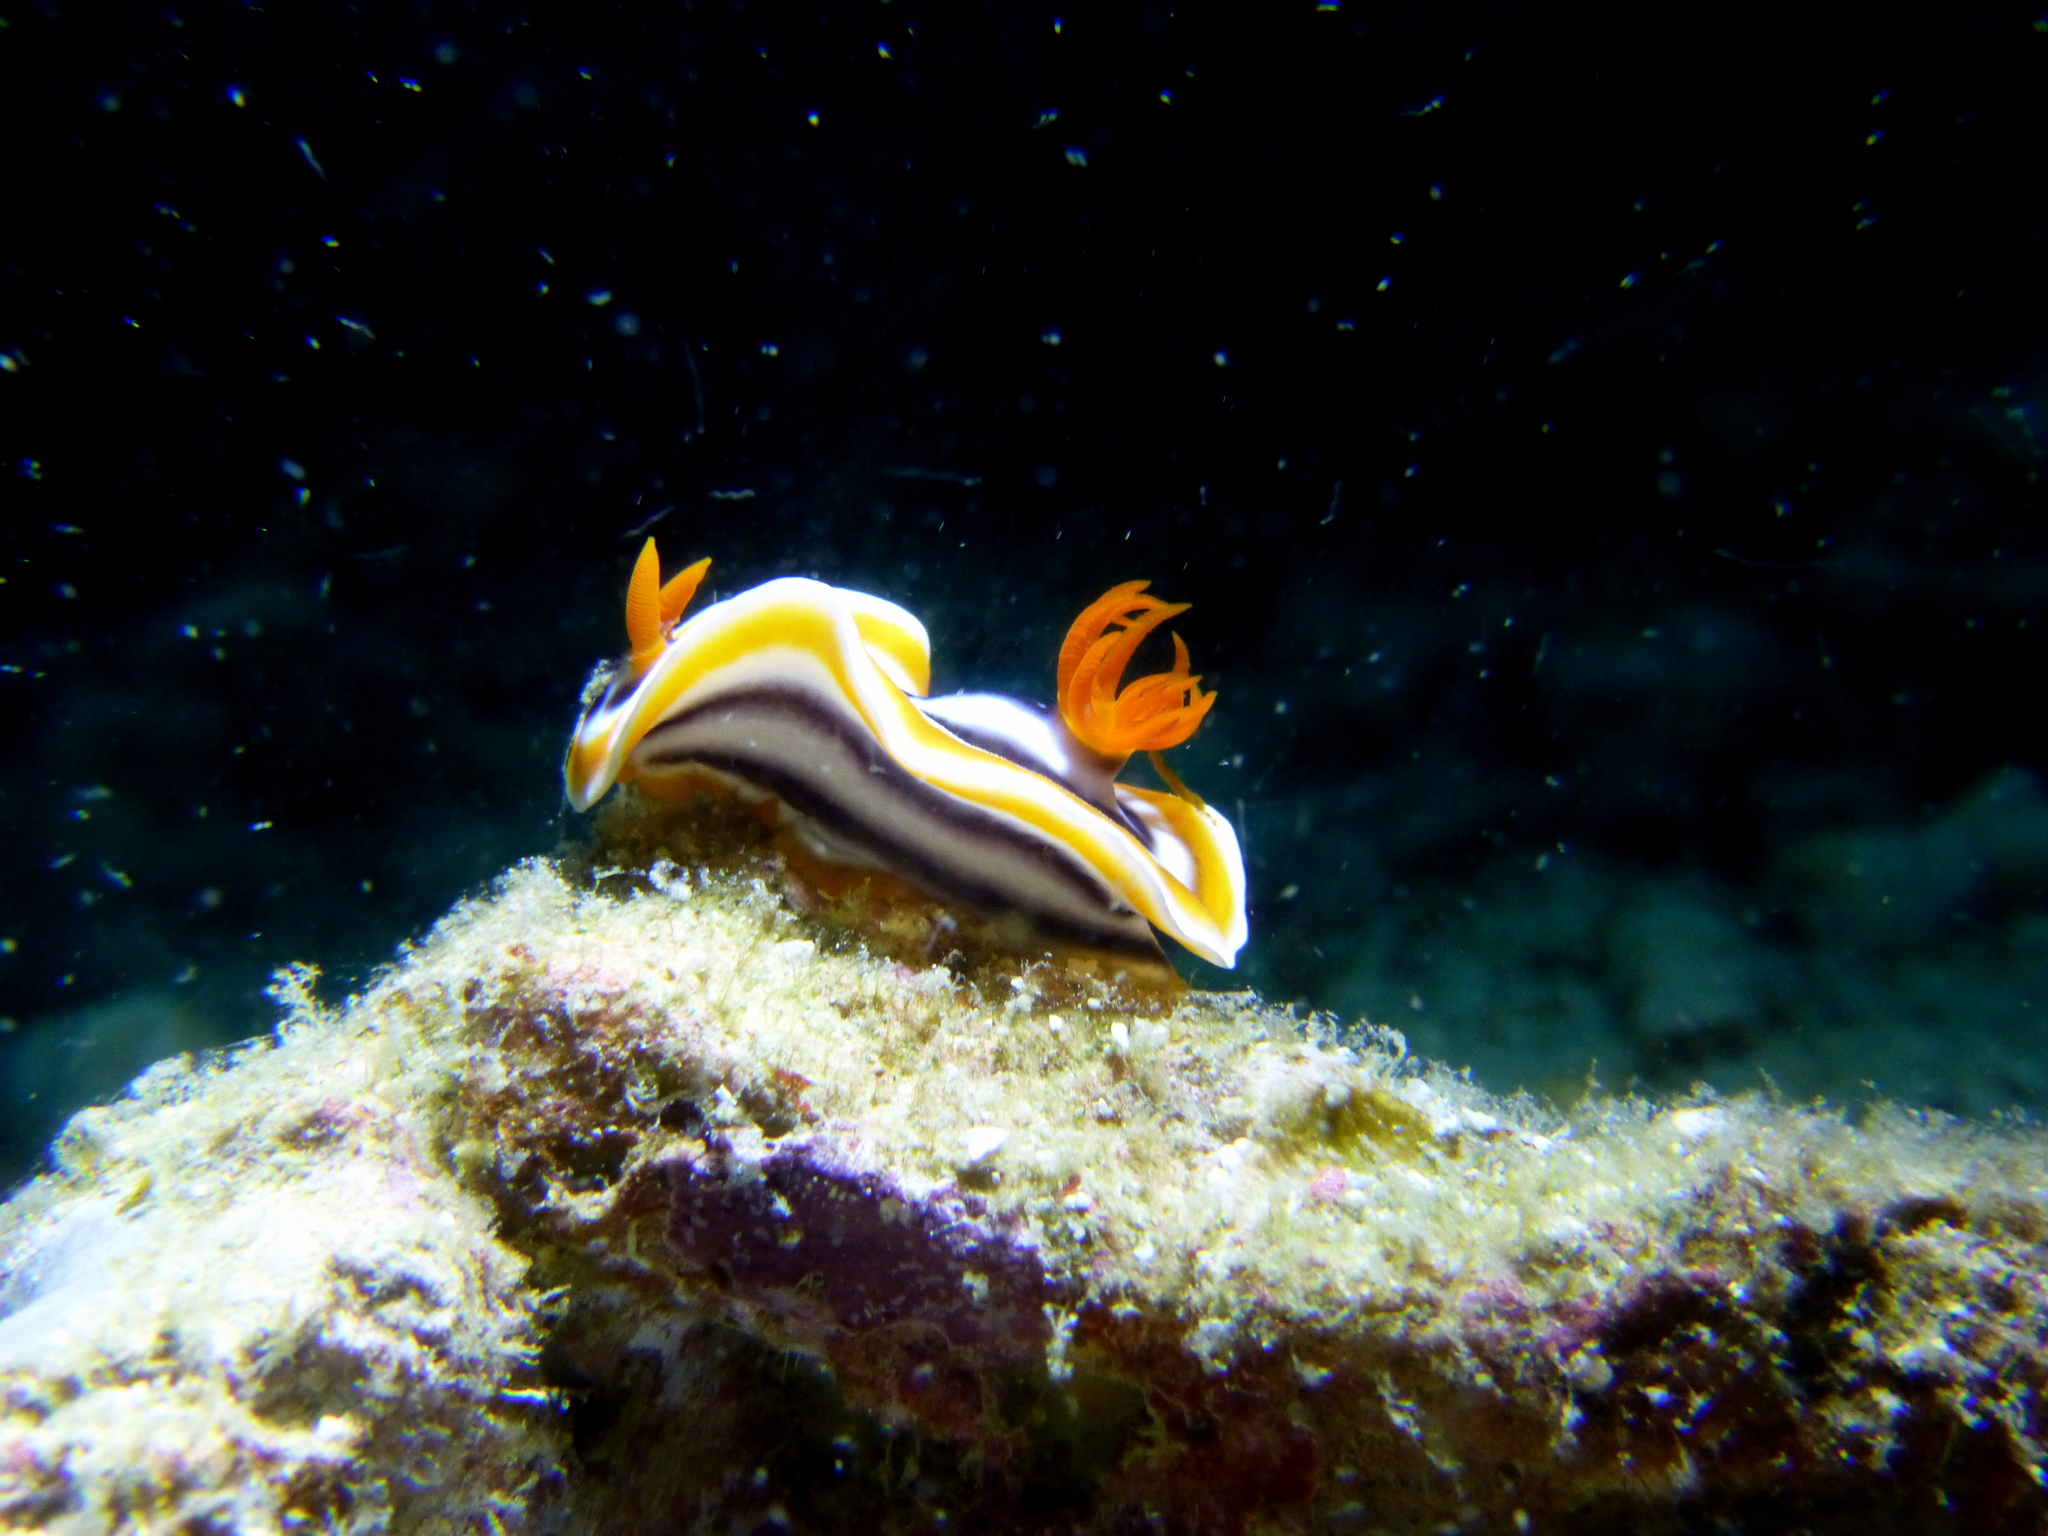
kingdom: Animalia
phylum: Mollusca
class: Gastropoda
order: Nudibranchia
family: Chromodorididae
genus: Chromodoris
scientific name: Chromodoris magnifica
